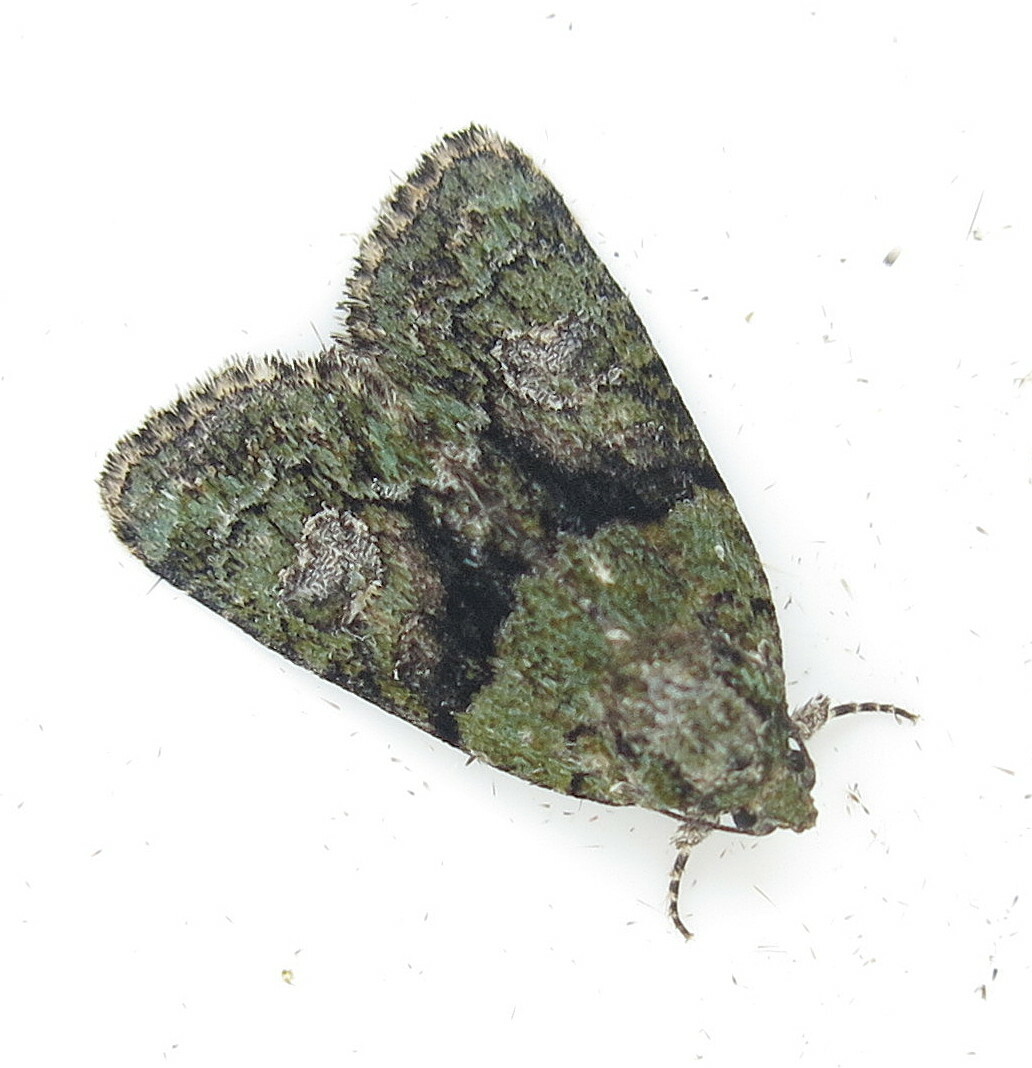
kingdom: Animalia
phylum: Arthropoda
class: Insecta
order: Lepidoptera
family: Noctuidae
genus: Cryphia
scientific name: Cryphia algae
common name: Tree-lichen beauty
